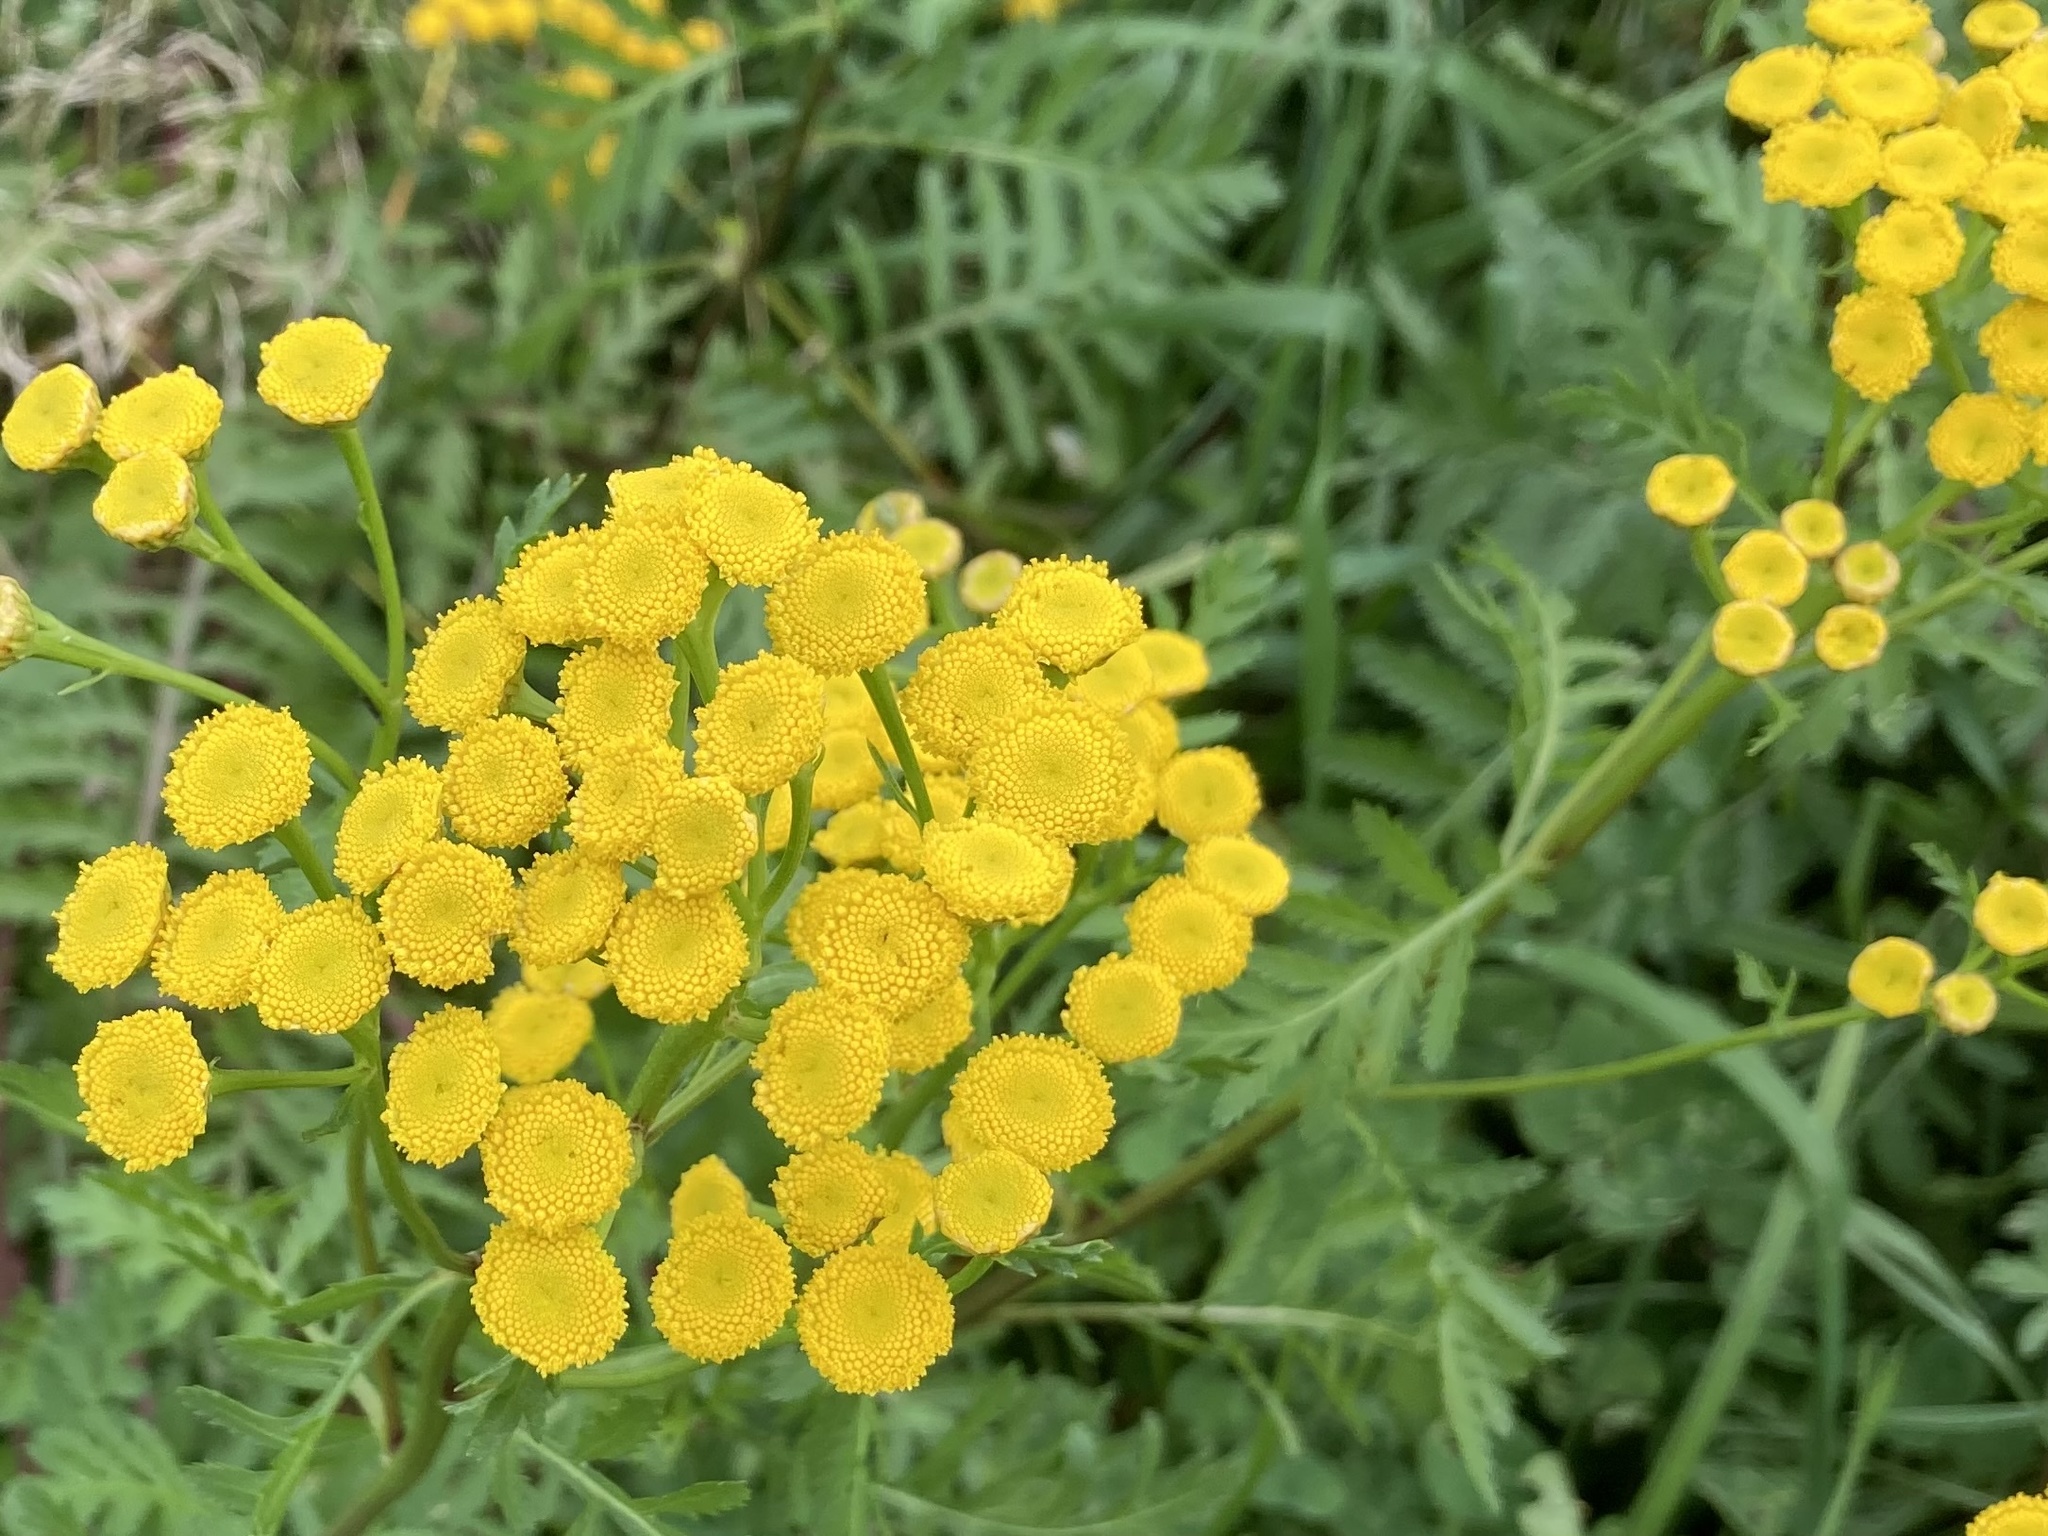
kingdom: Plantae
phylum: Tracheophyta
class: Magnoliopsida
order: Asterales
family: Asteraceae
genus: Tanacetum
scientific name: Tanacetum vulgare
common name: Common tansy
